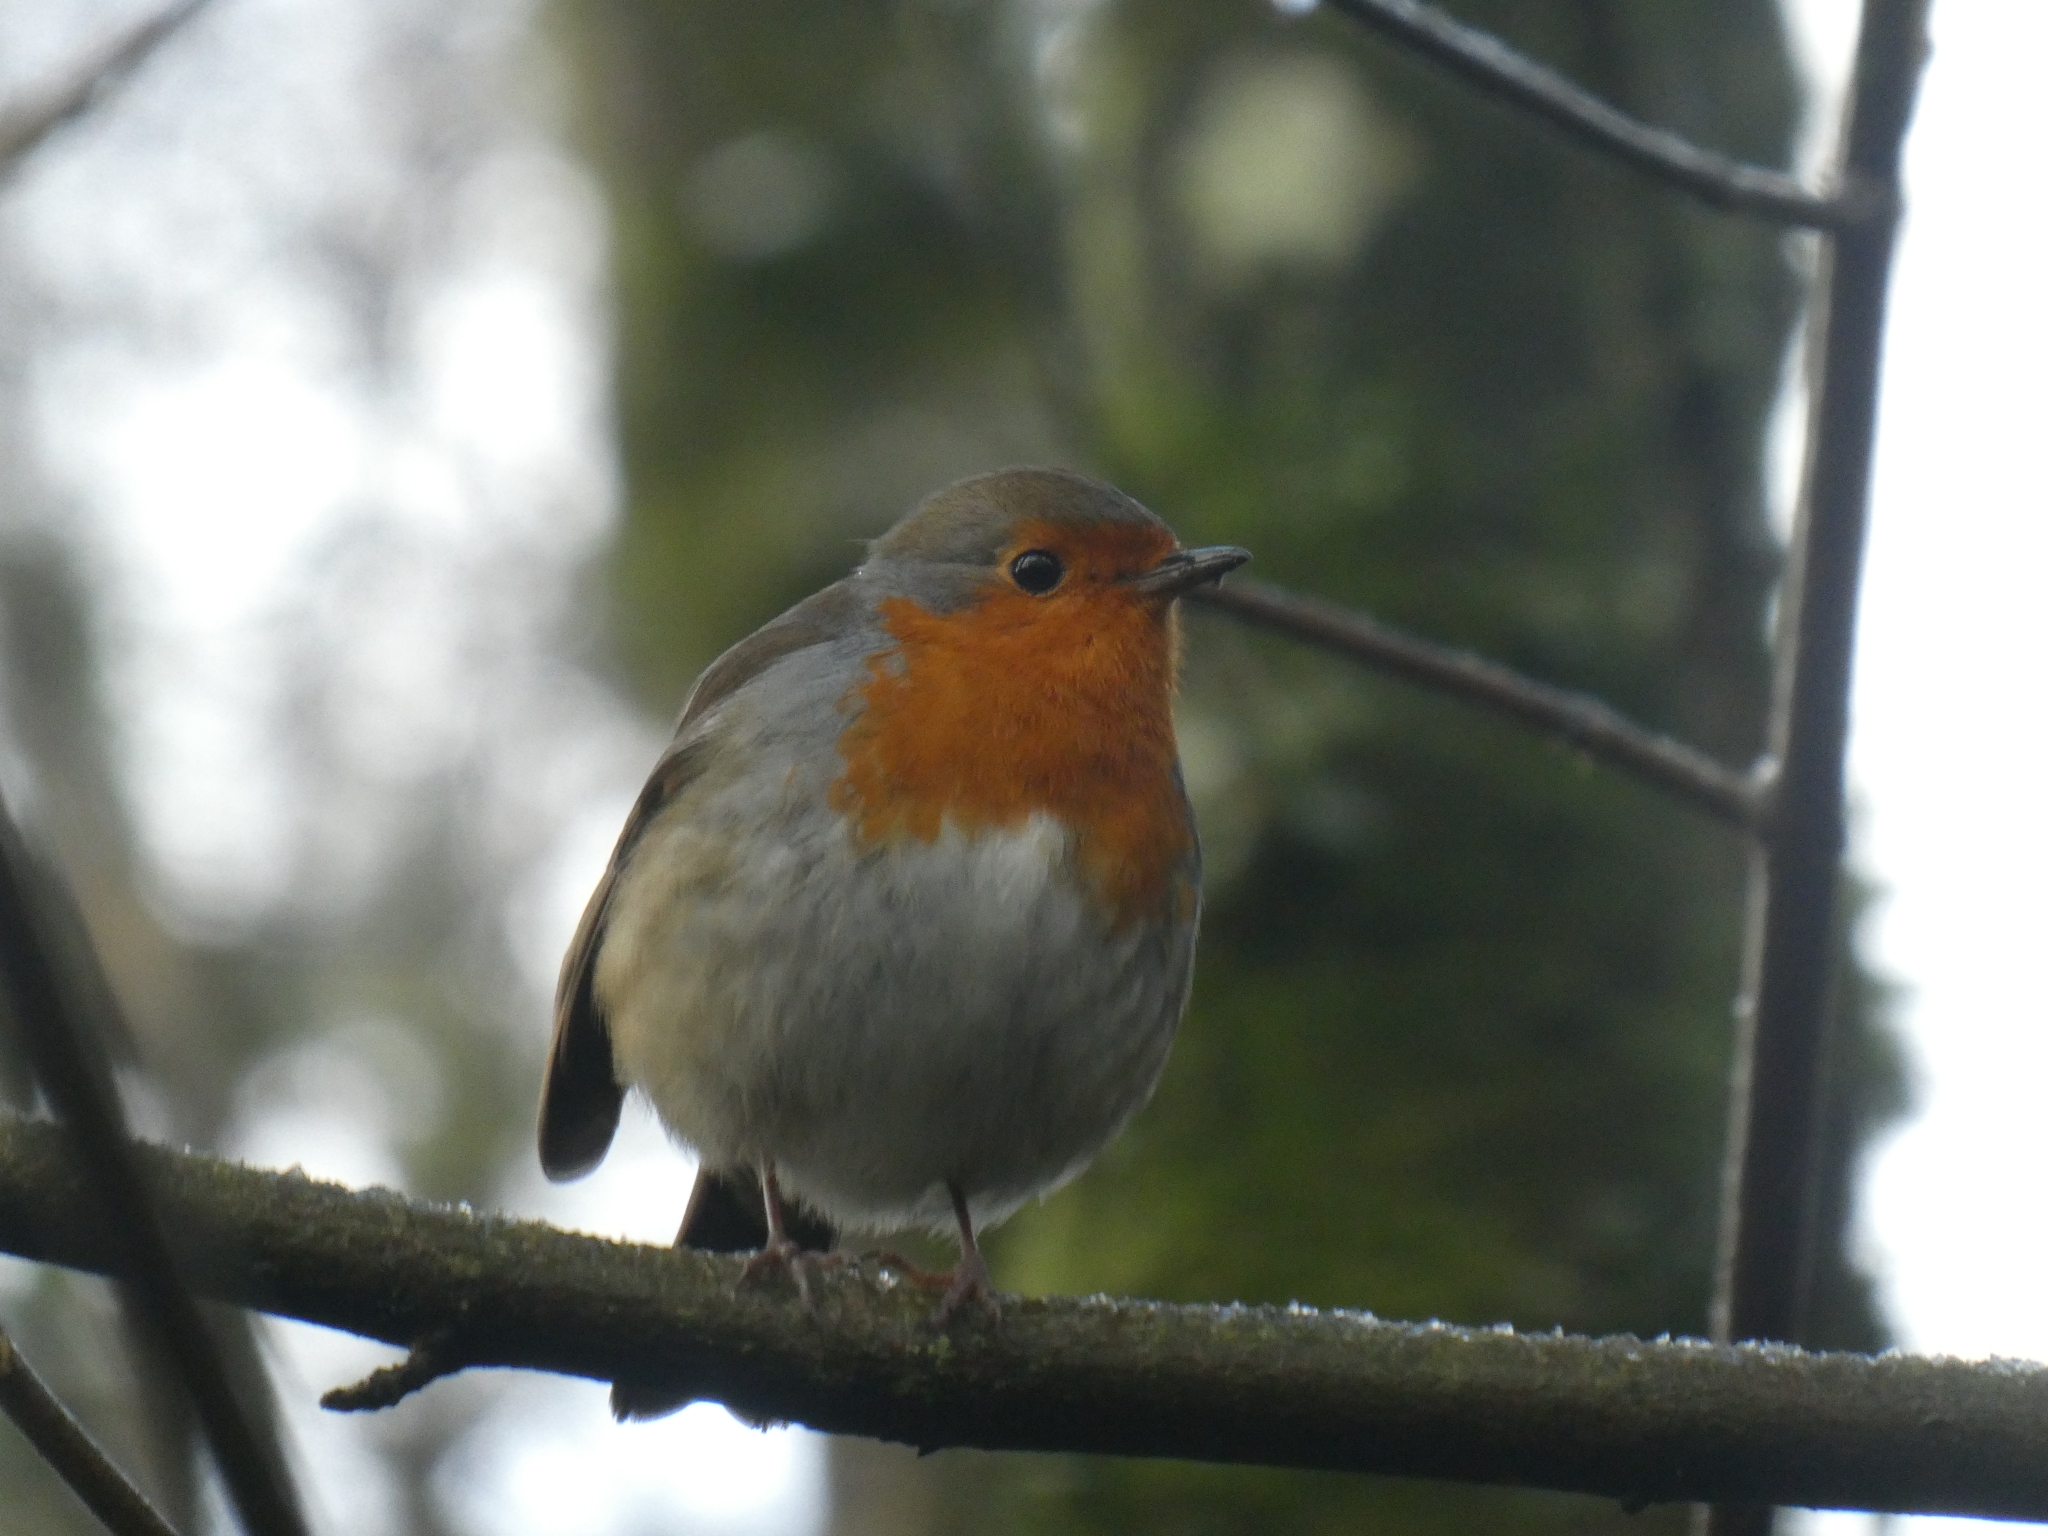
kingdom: Animalia
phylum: Chordata
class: Aves
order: Passeriformes
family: Muscicapidae
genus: Erithacus
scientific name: Erithacus rubecula
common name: European robin
